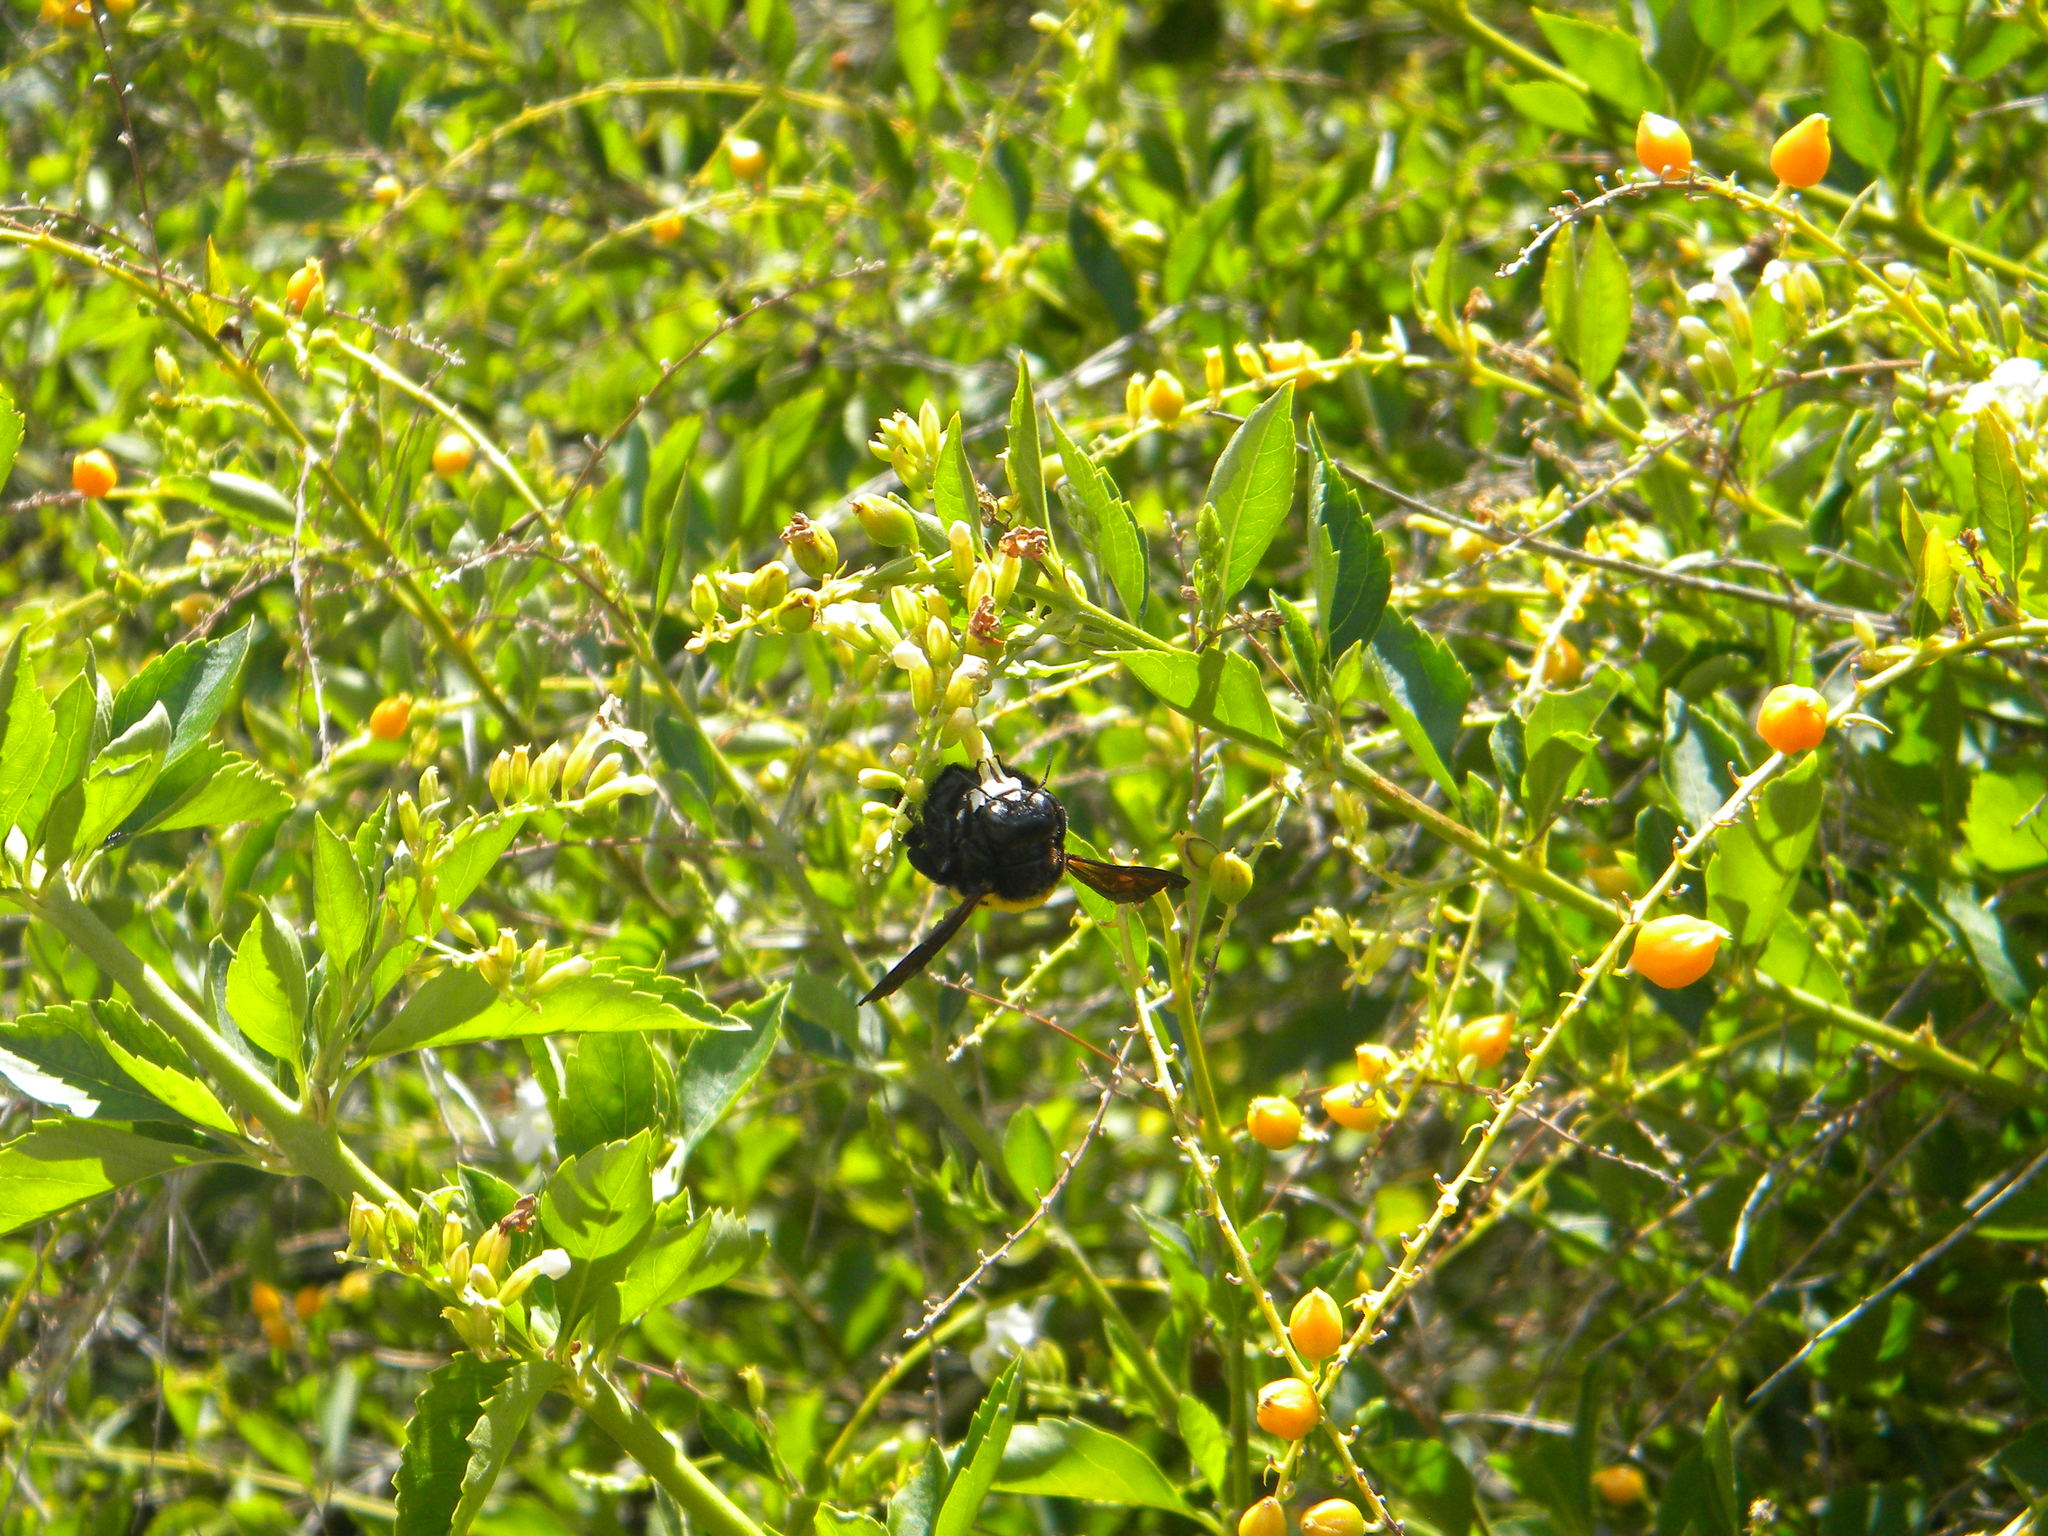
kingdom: Animalia
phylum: Arthropoda
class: Insecta
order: Hymenoptera
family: Apidae
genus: Xylocopa
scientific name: Xylocopa caffra
